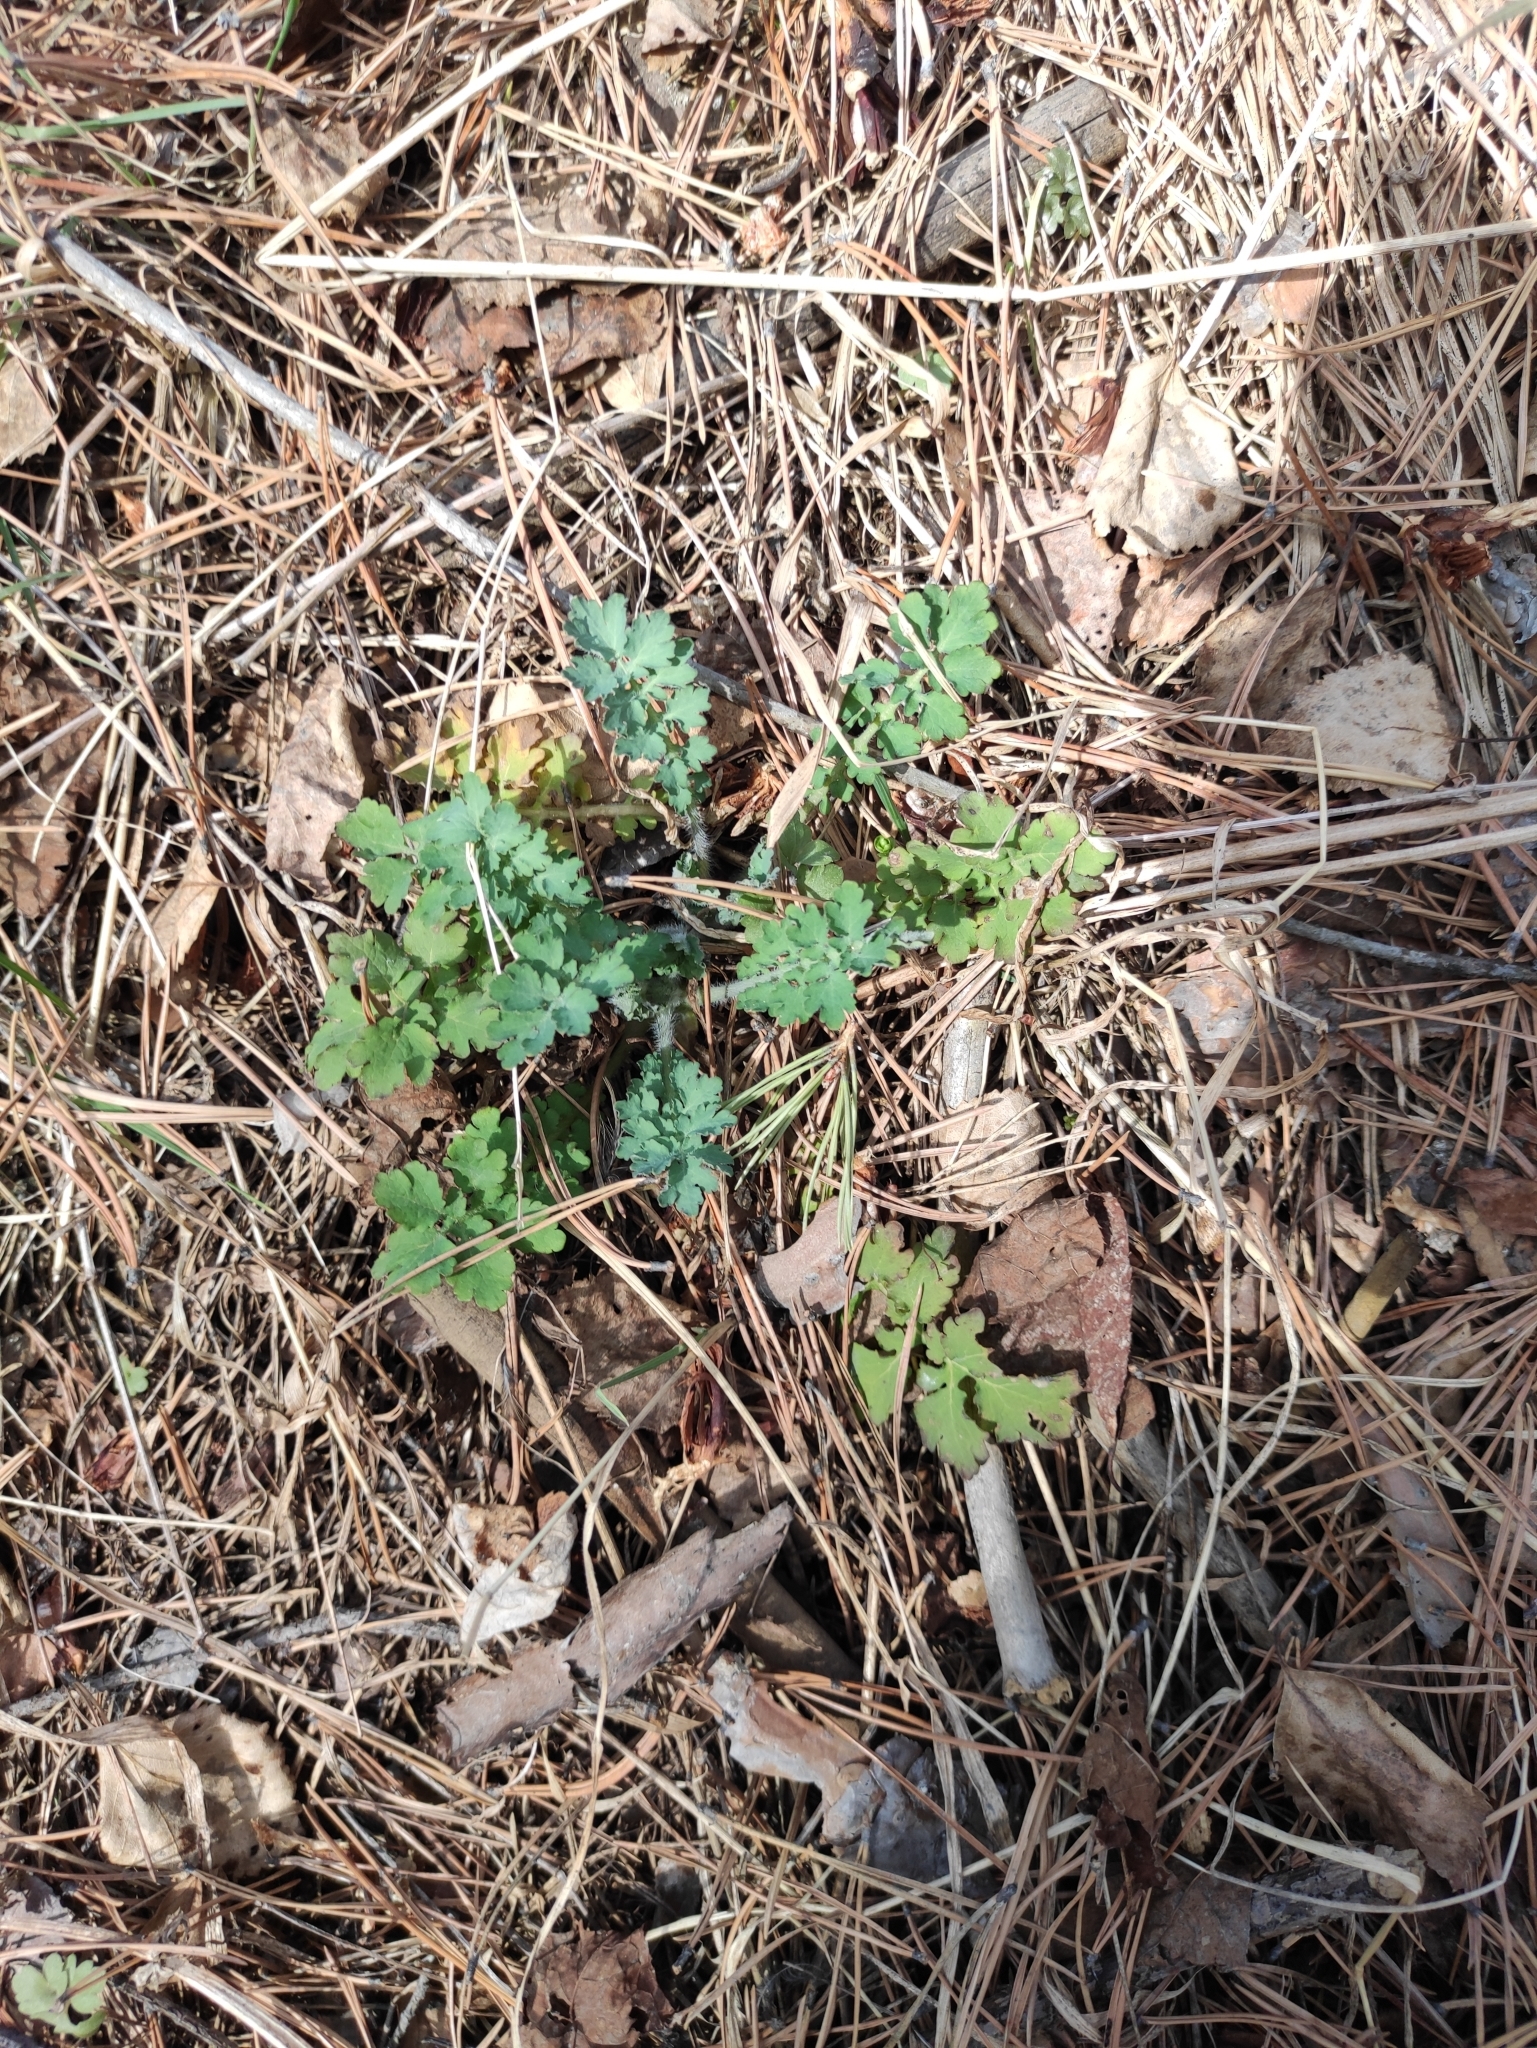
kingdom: Plantae
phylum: Tracheophyta
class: Magnoliopsida
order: Ranunculales
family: Papaveraceae
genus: Chelidonium
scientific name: Chelidonium majus
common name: Greater celandine
